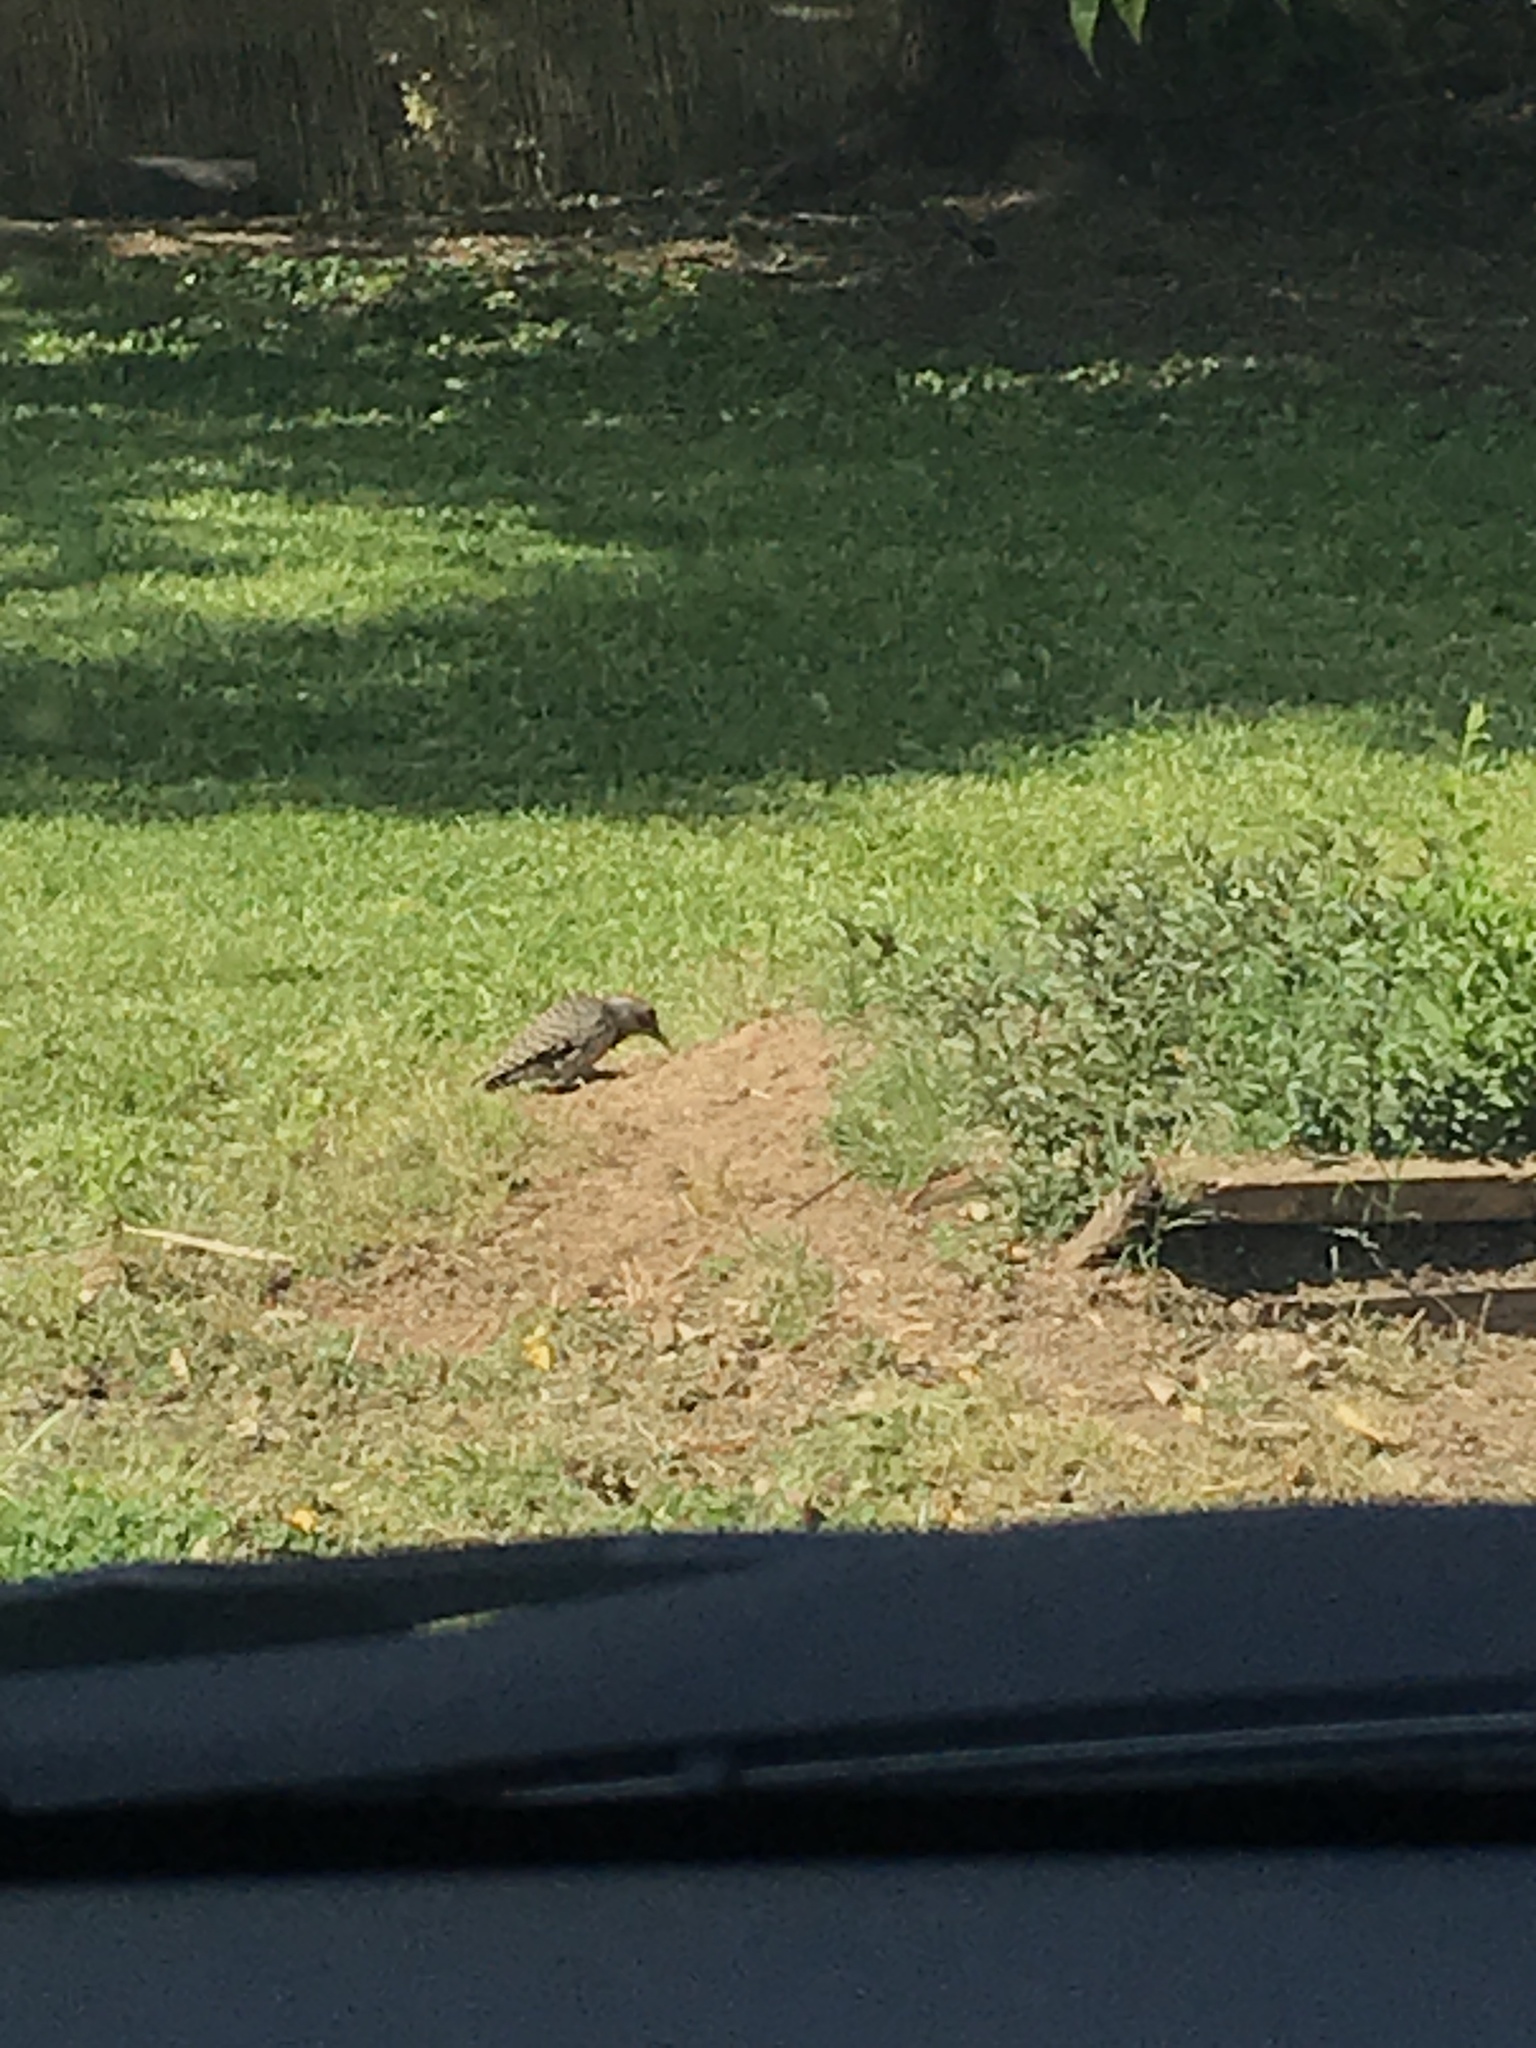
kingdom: Animalia
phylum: Chordata
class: Aves
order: Piciformes
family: Picidae
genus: Colaptes
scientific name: Colaptes auratus
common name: Northern flicker
